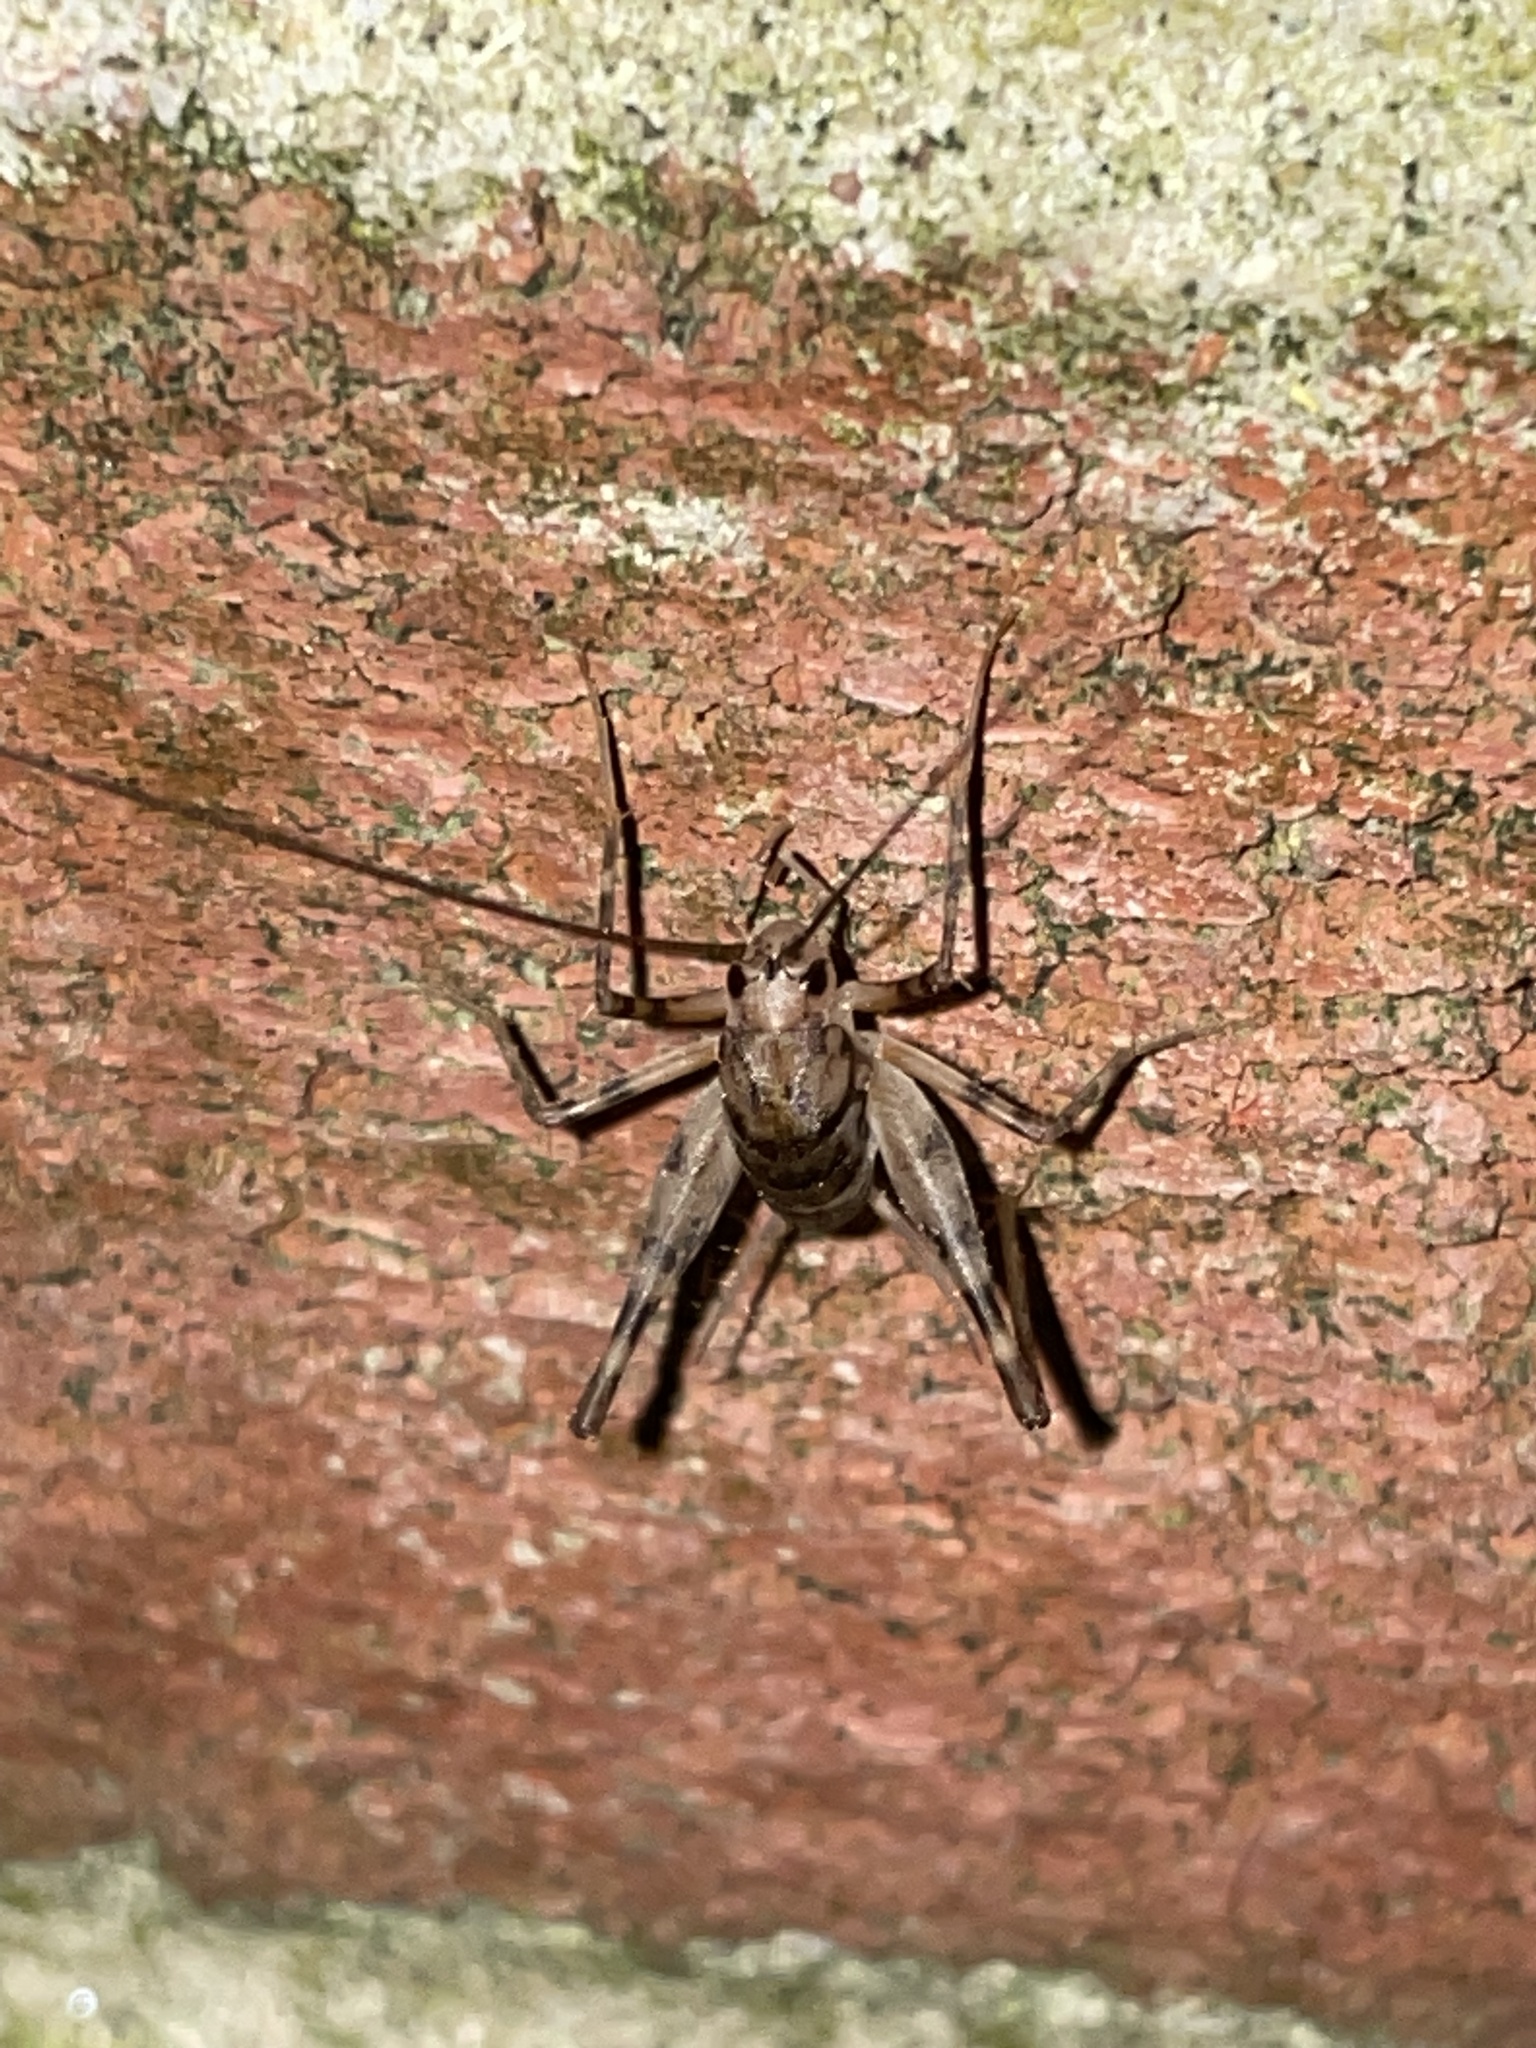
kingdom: Animalia
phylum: Arthropoda
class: Insecta
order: Orthoptera
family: Rhaphidophoridae
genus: Tachycines
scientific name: Tachycines asynamorus
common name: Greenhouse camel cricket
